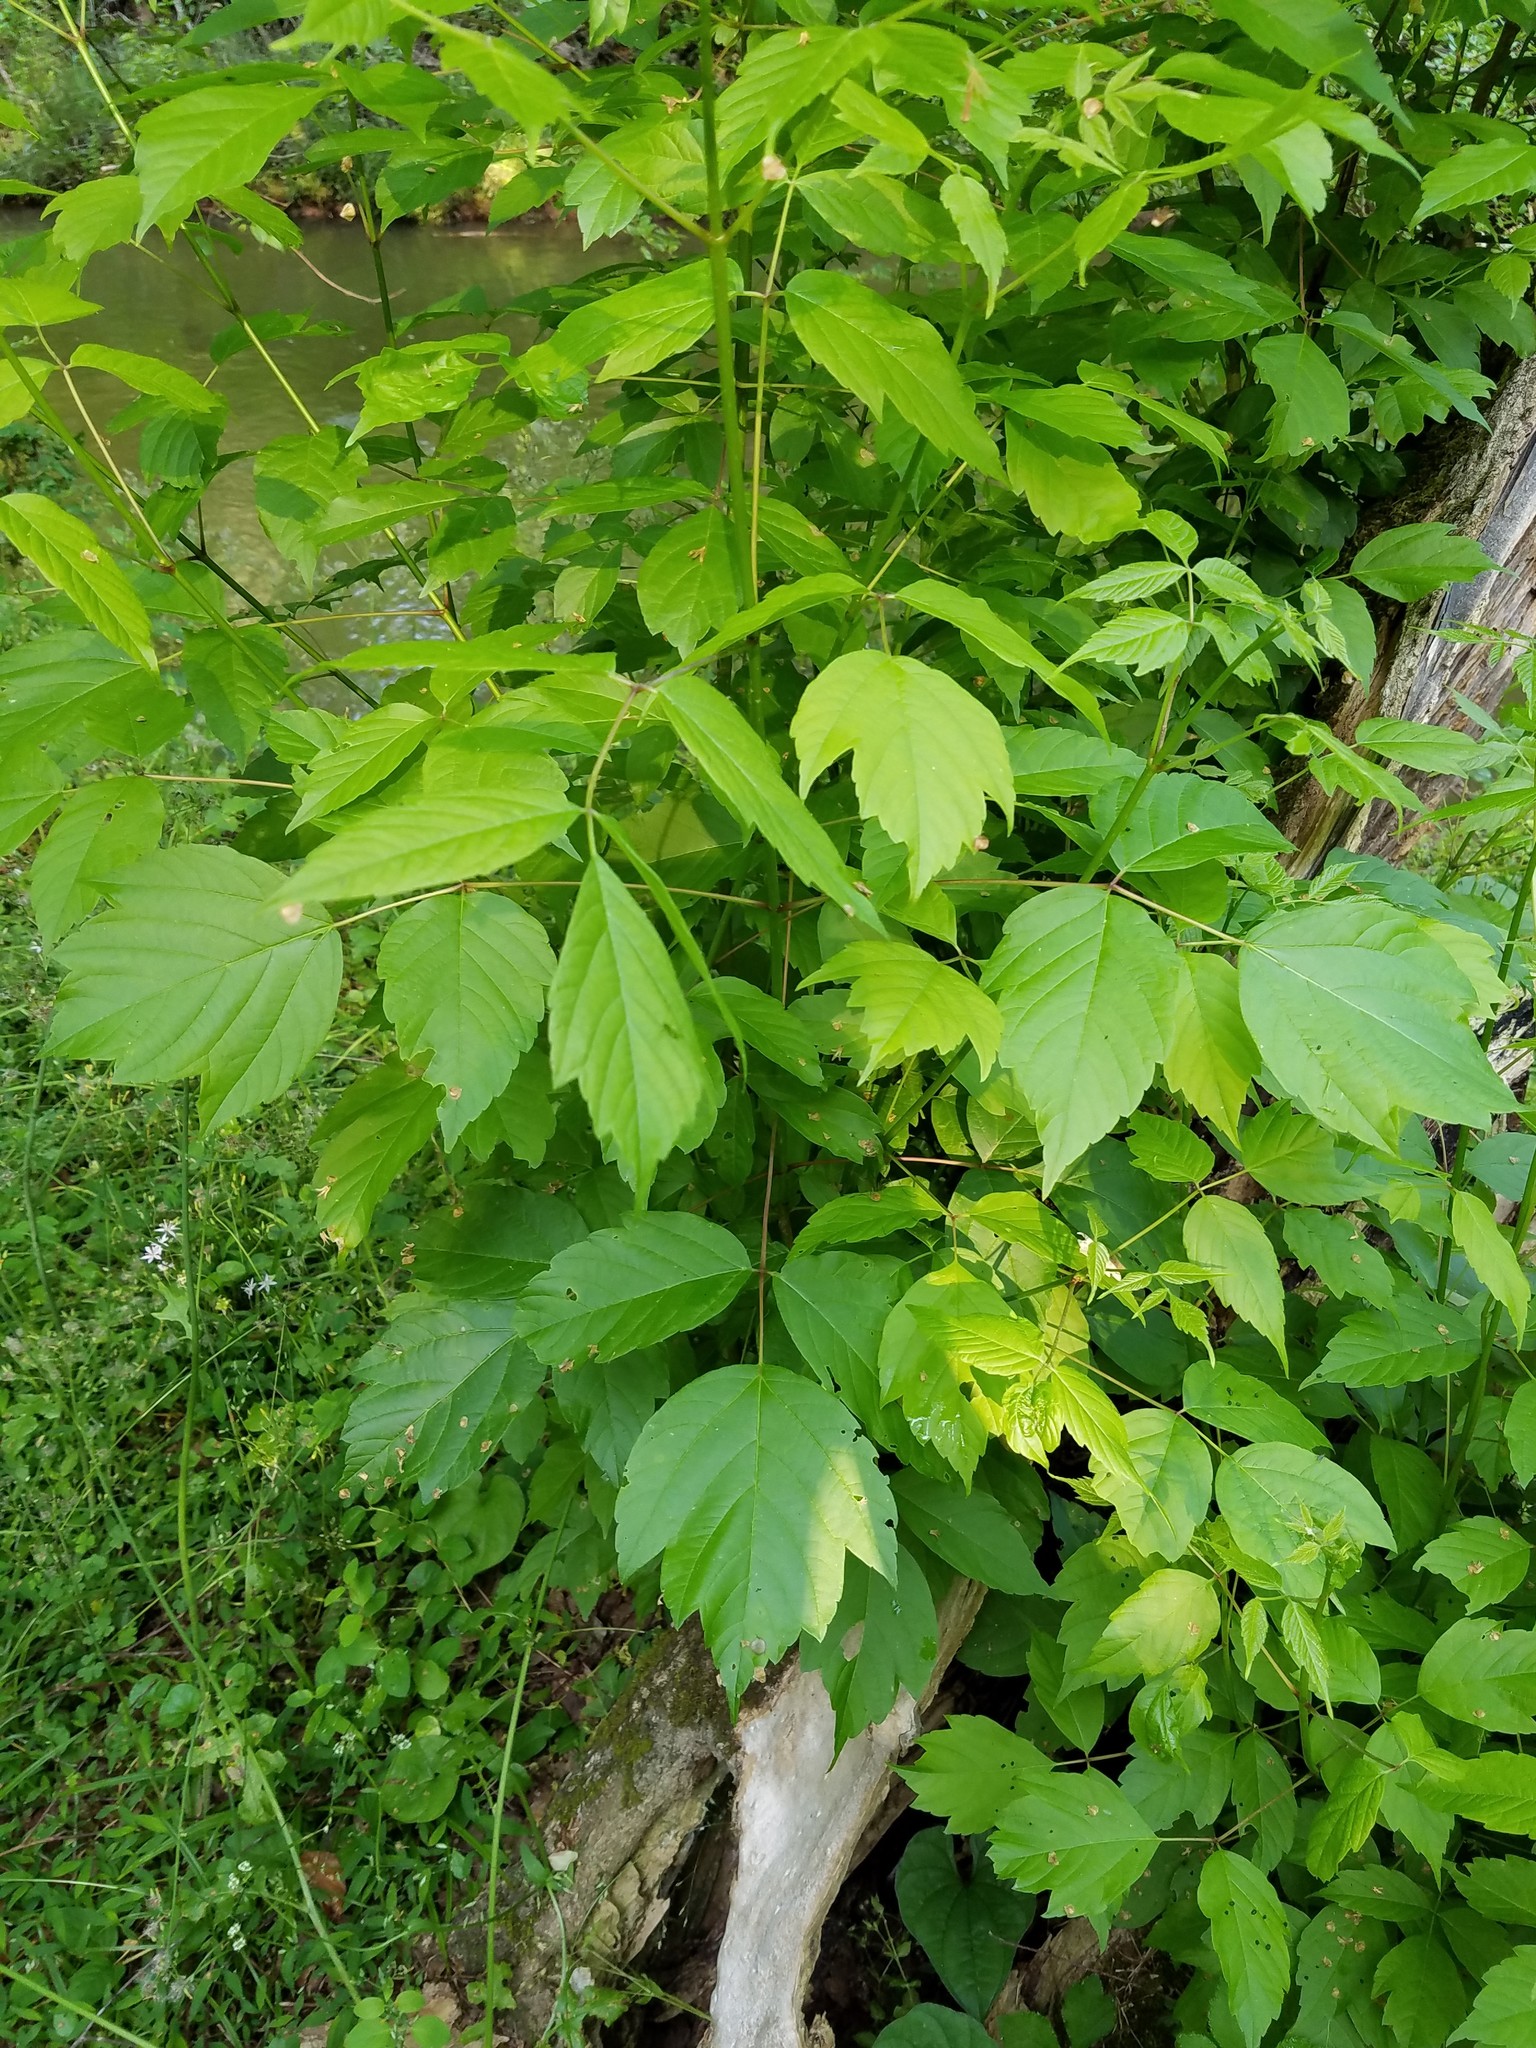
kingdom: Plantae
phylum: Tracheophyta
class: Magnoliopsida
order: Sapindales
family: Sapindaceae
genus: Acer
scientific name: Acer negundo
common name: Ashleaf maple
